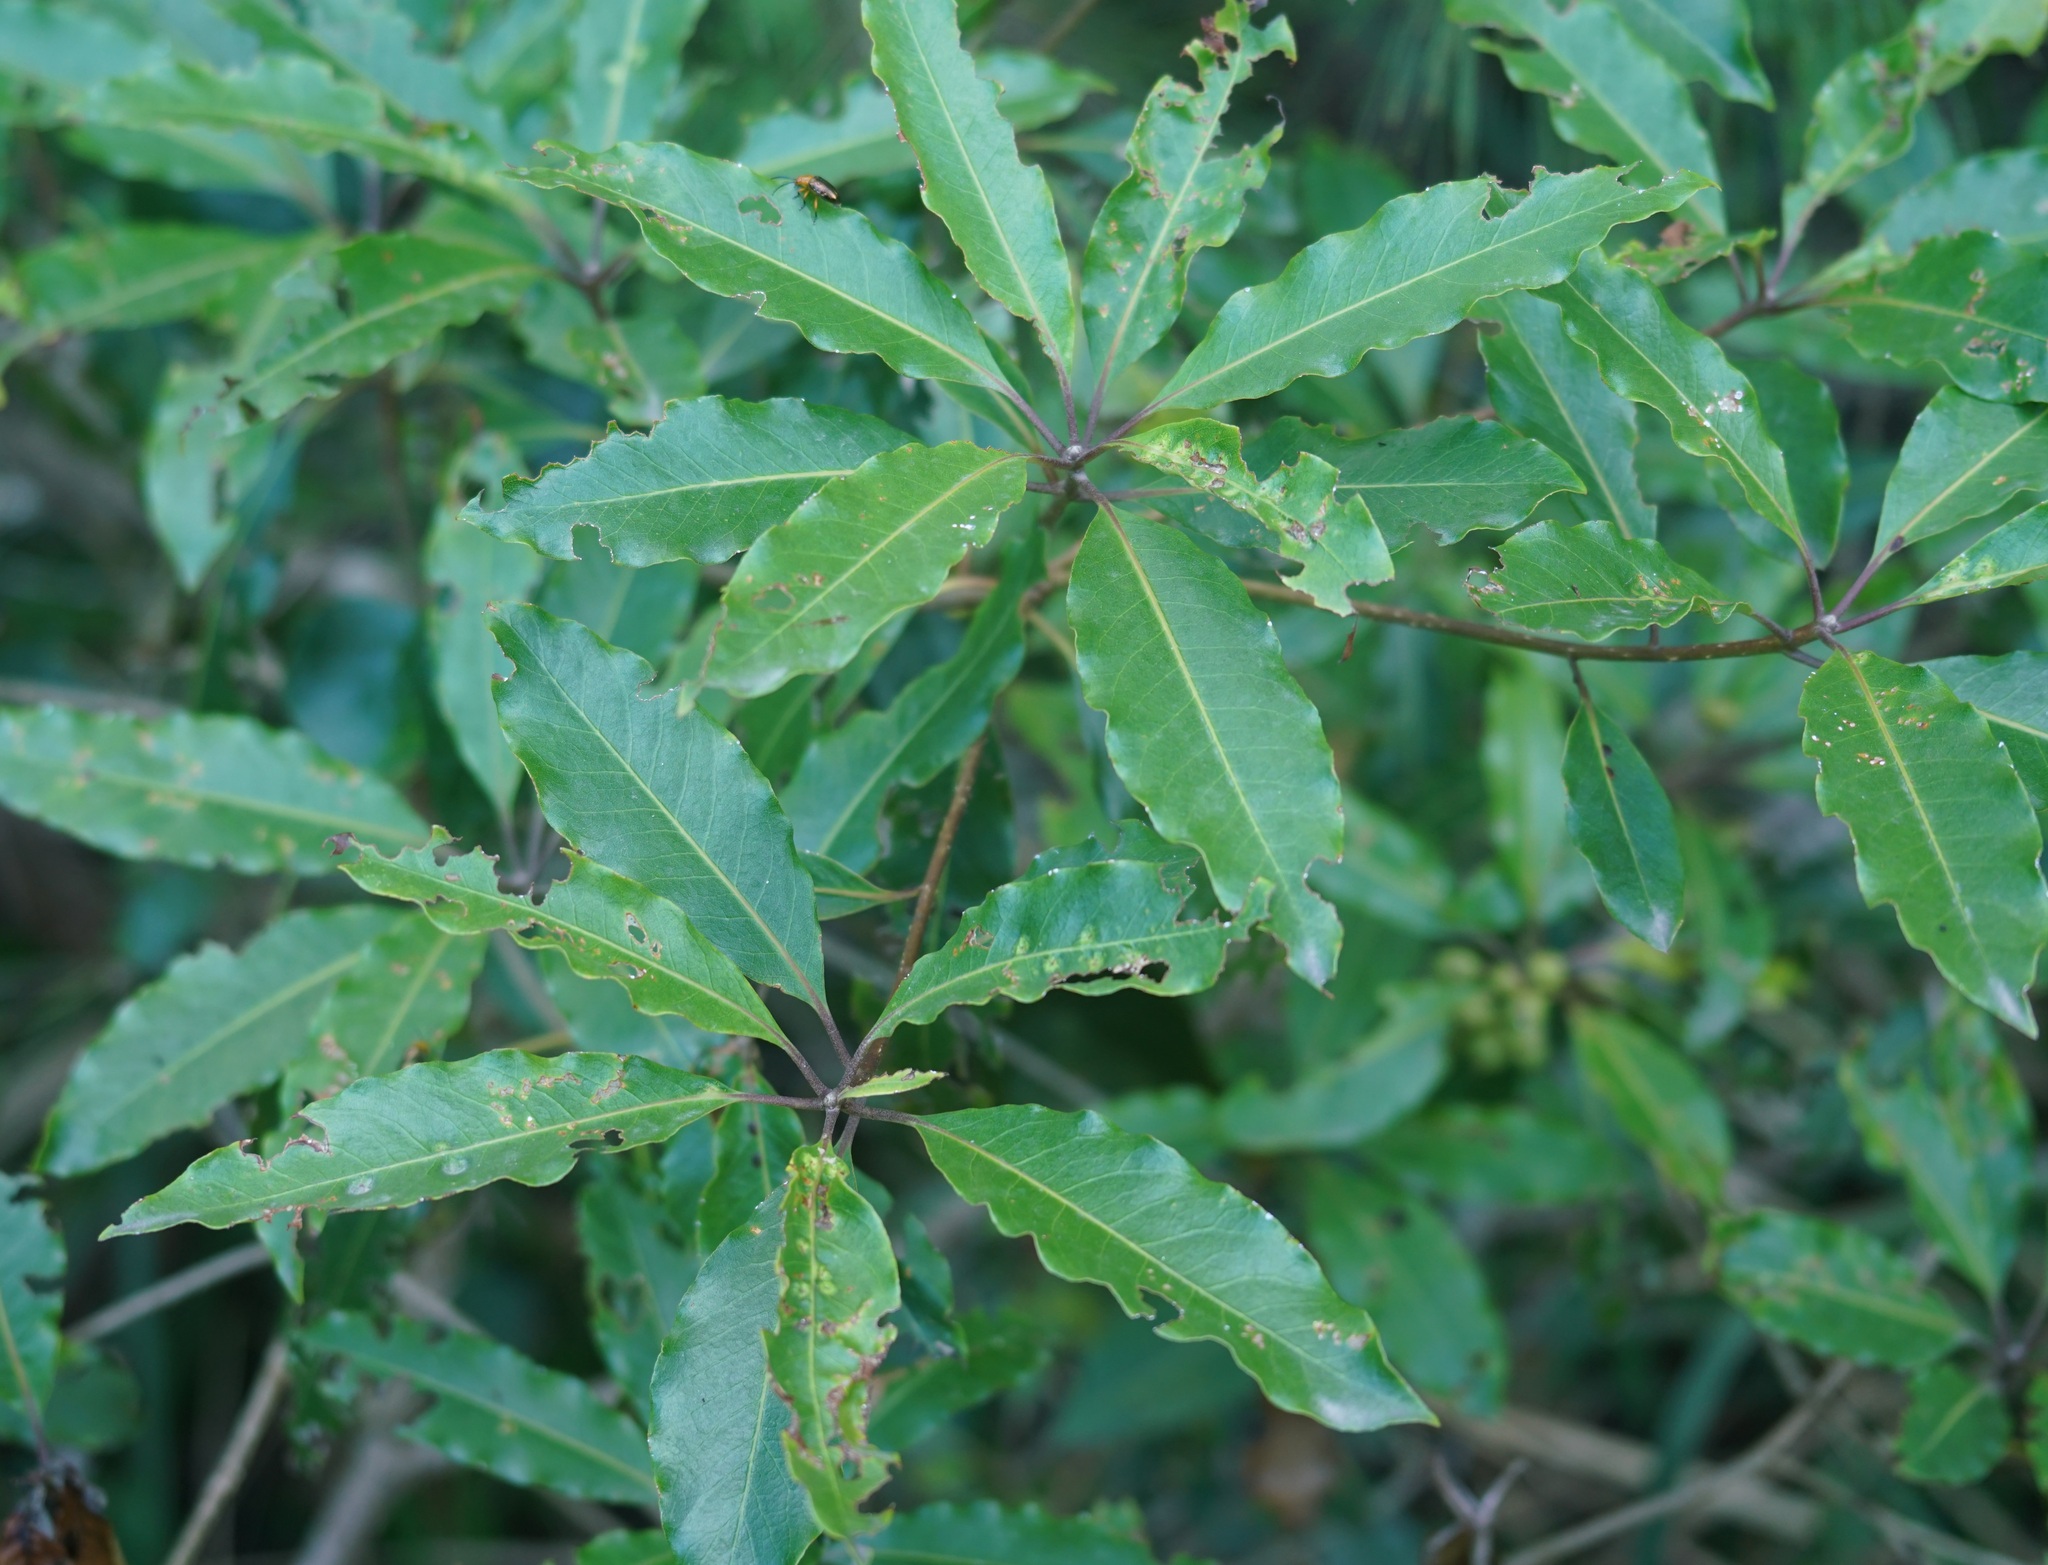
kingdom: Plantae
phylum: Tracheophyta
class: Magnoliopsida
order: Apiales
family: Pittosporaceae
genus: Pittosporum
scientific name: Pittosporum undulatum
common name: Australian cheesewood
